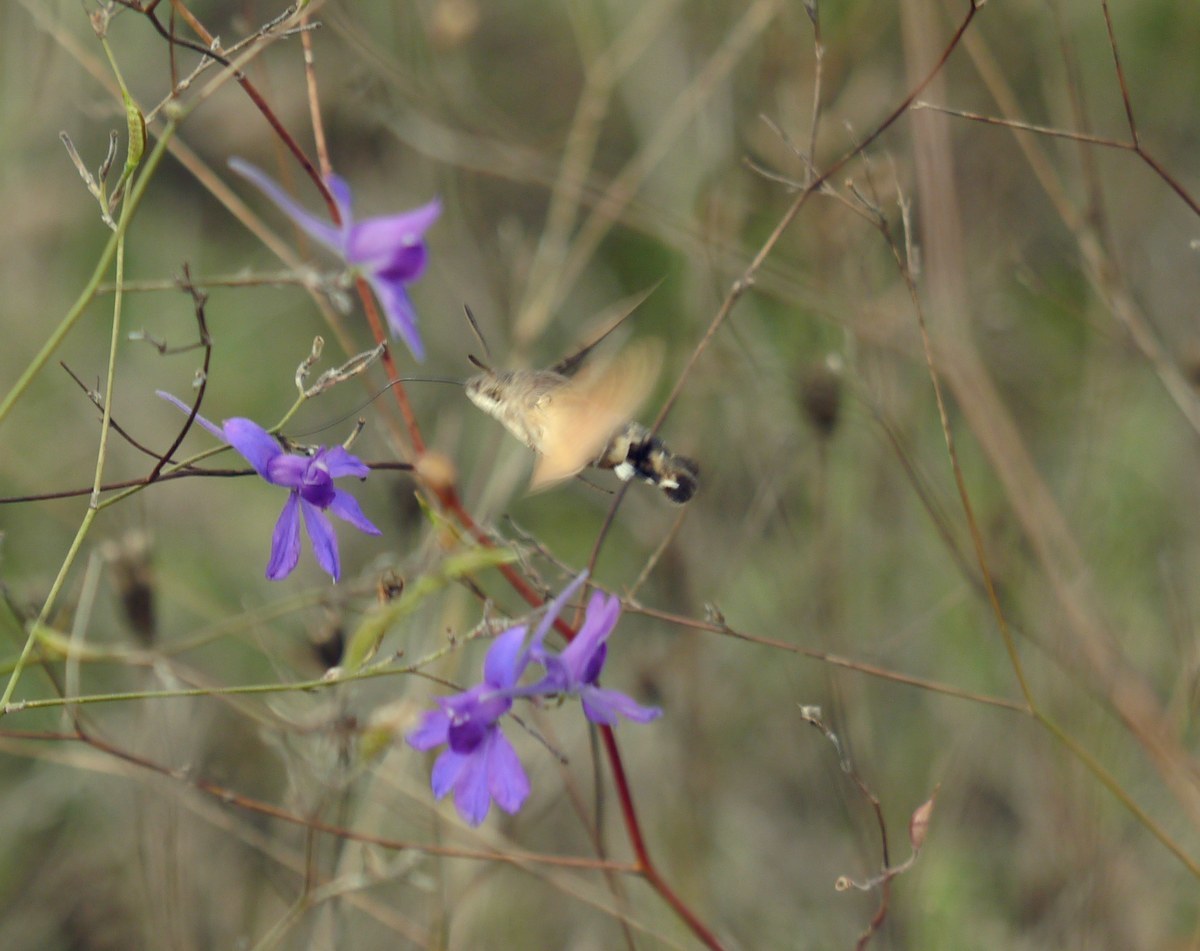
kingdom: Animalia
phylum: Arthropoda
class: Insecta
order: Lepidoptera
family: Sphingidae
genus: Macroglossum
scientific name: Macroglossum stellatarum
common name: Humming-bird hawk-moth
